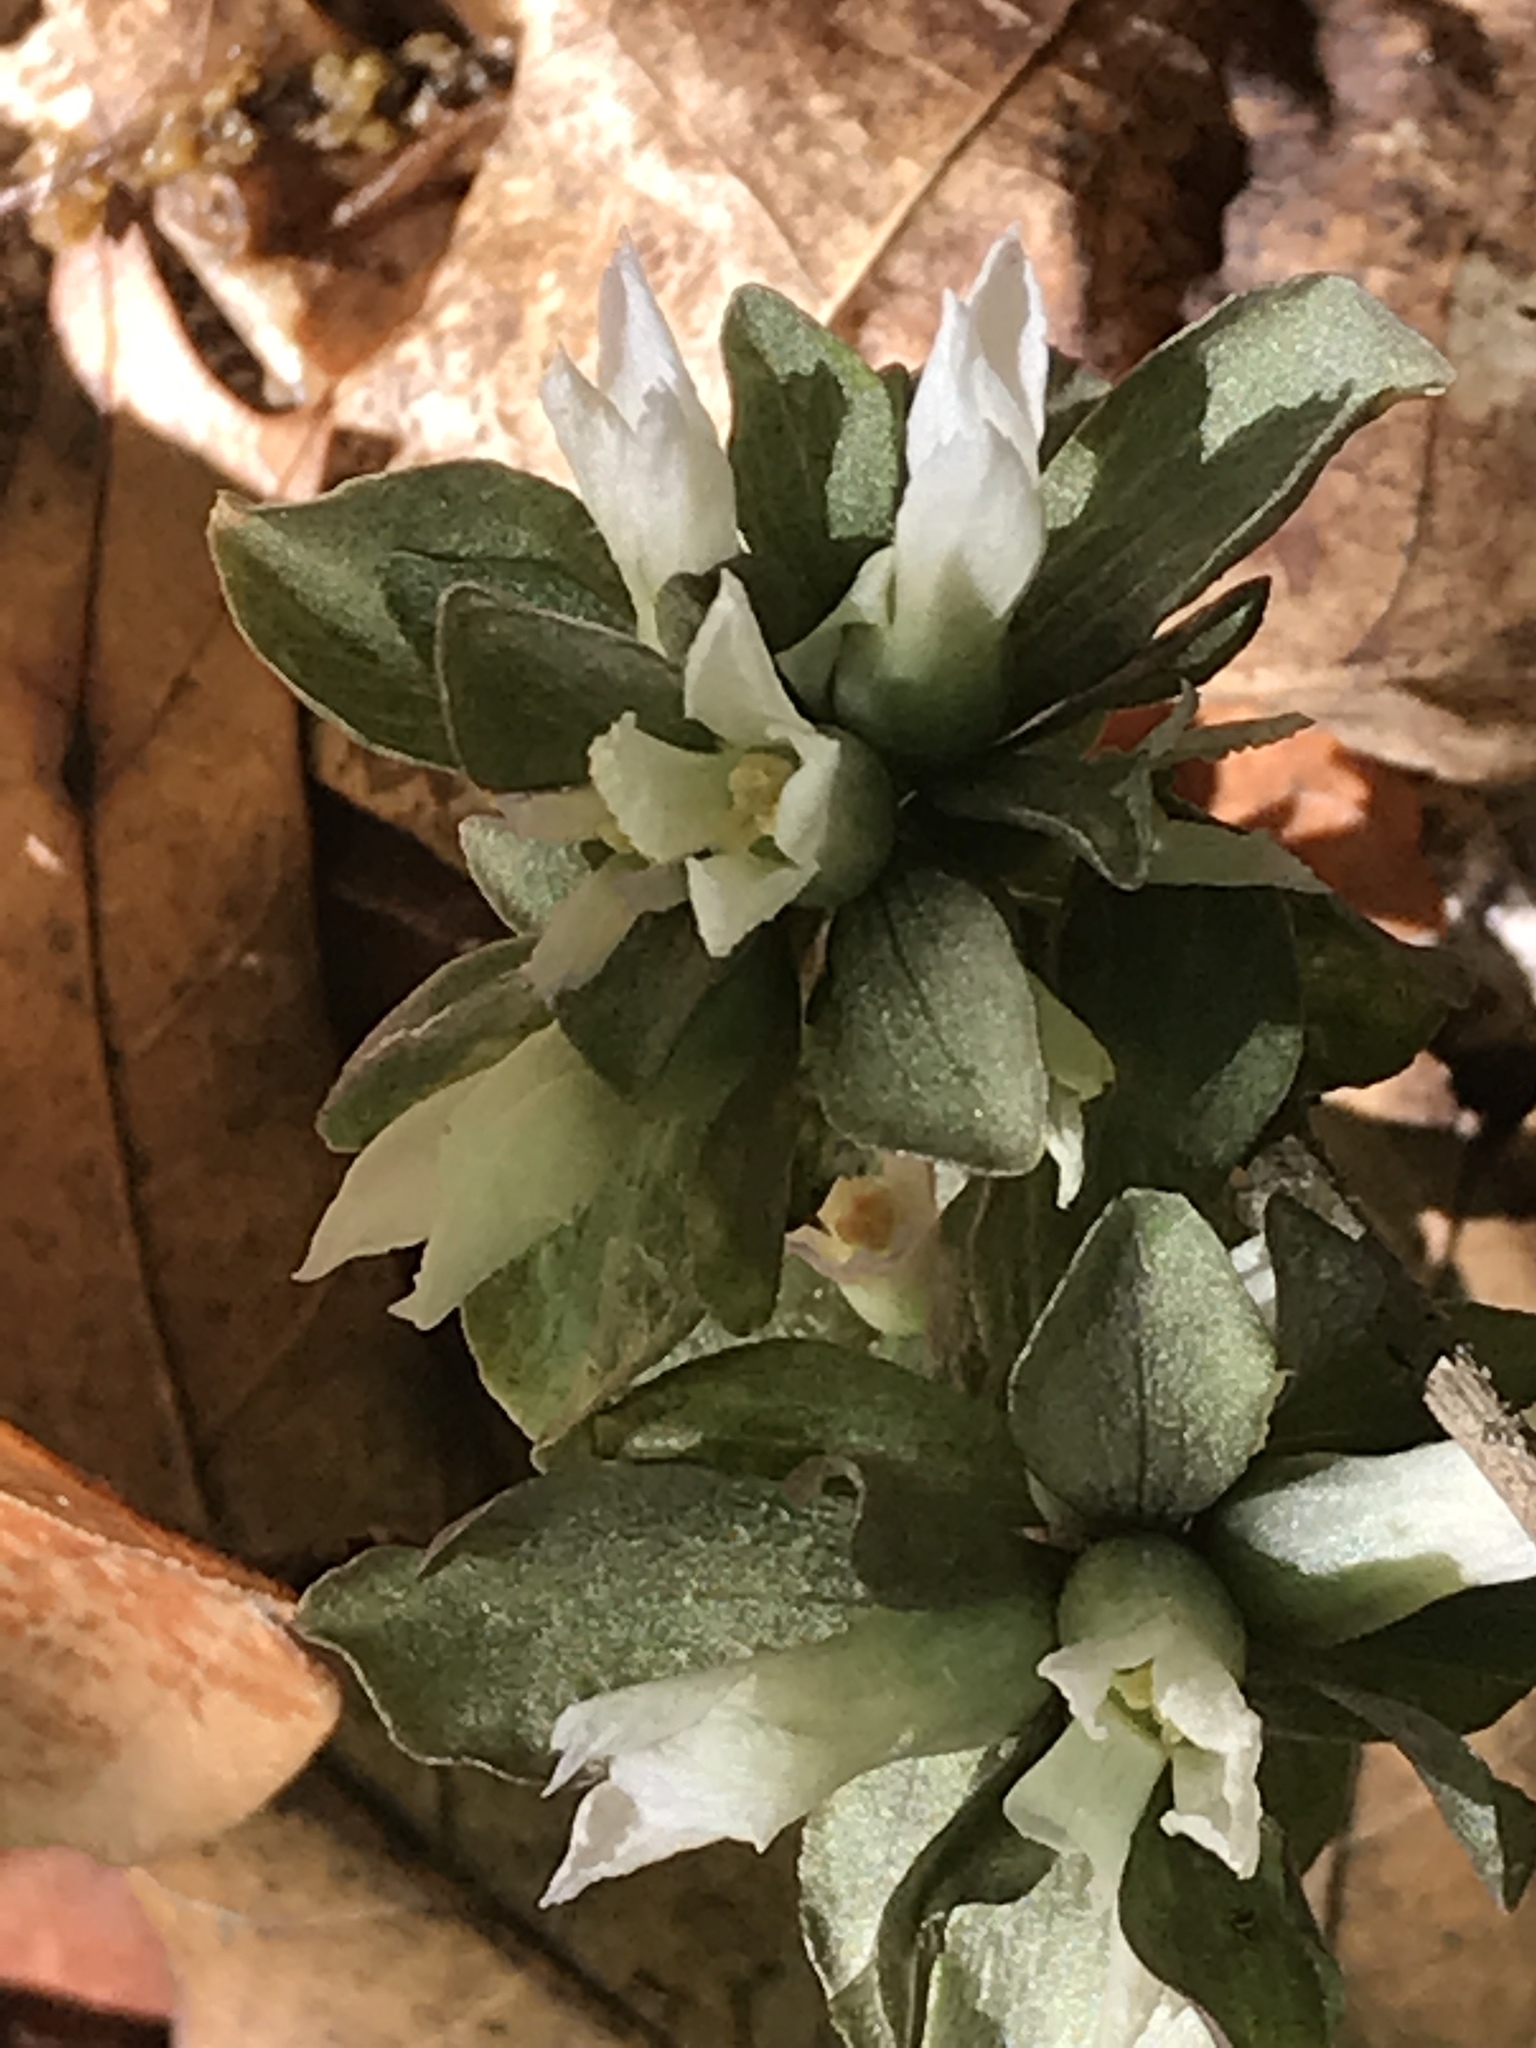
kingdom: Plantae
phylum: Tracheophyta
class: Magnoliopsida
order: Gentianales
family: Gentianaceae
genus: Obolaria
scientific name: Obolaria virginica
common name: Pennywort
